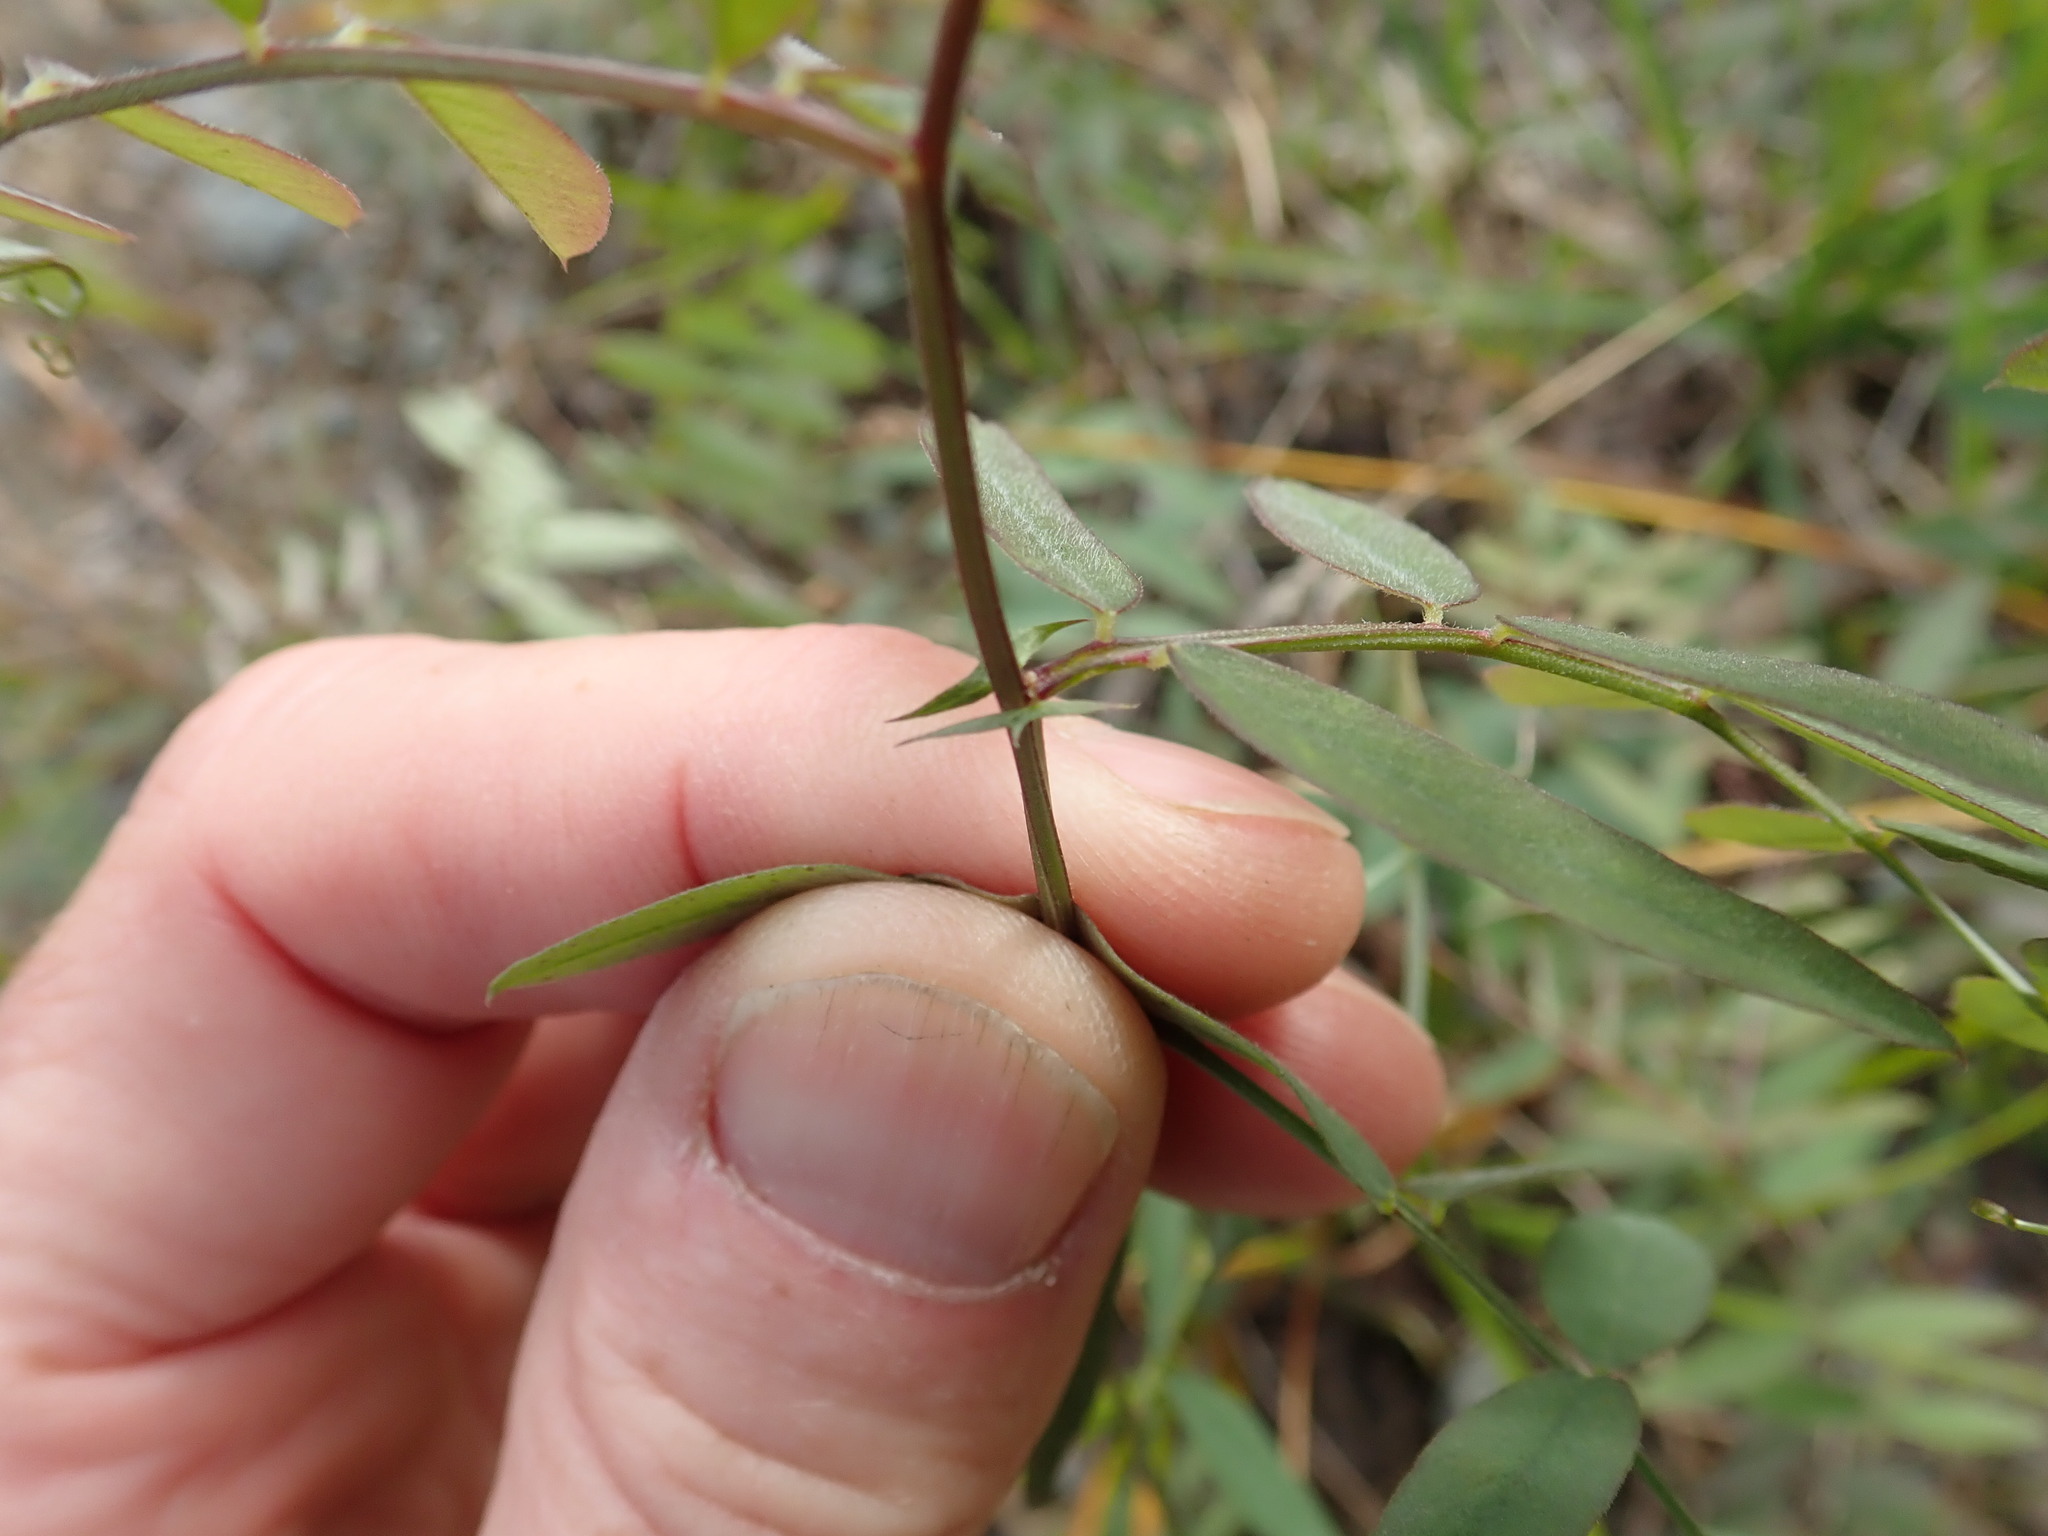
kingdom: Plantae
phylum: Tracheophyta
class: Magnoliopsida
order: Fabales
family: Fabaceae
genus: Vicia
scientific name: Vicia americana
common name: American vetch
